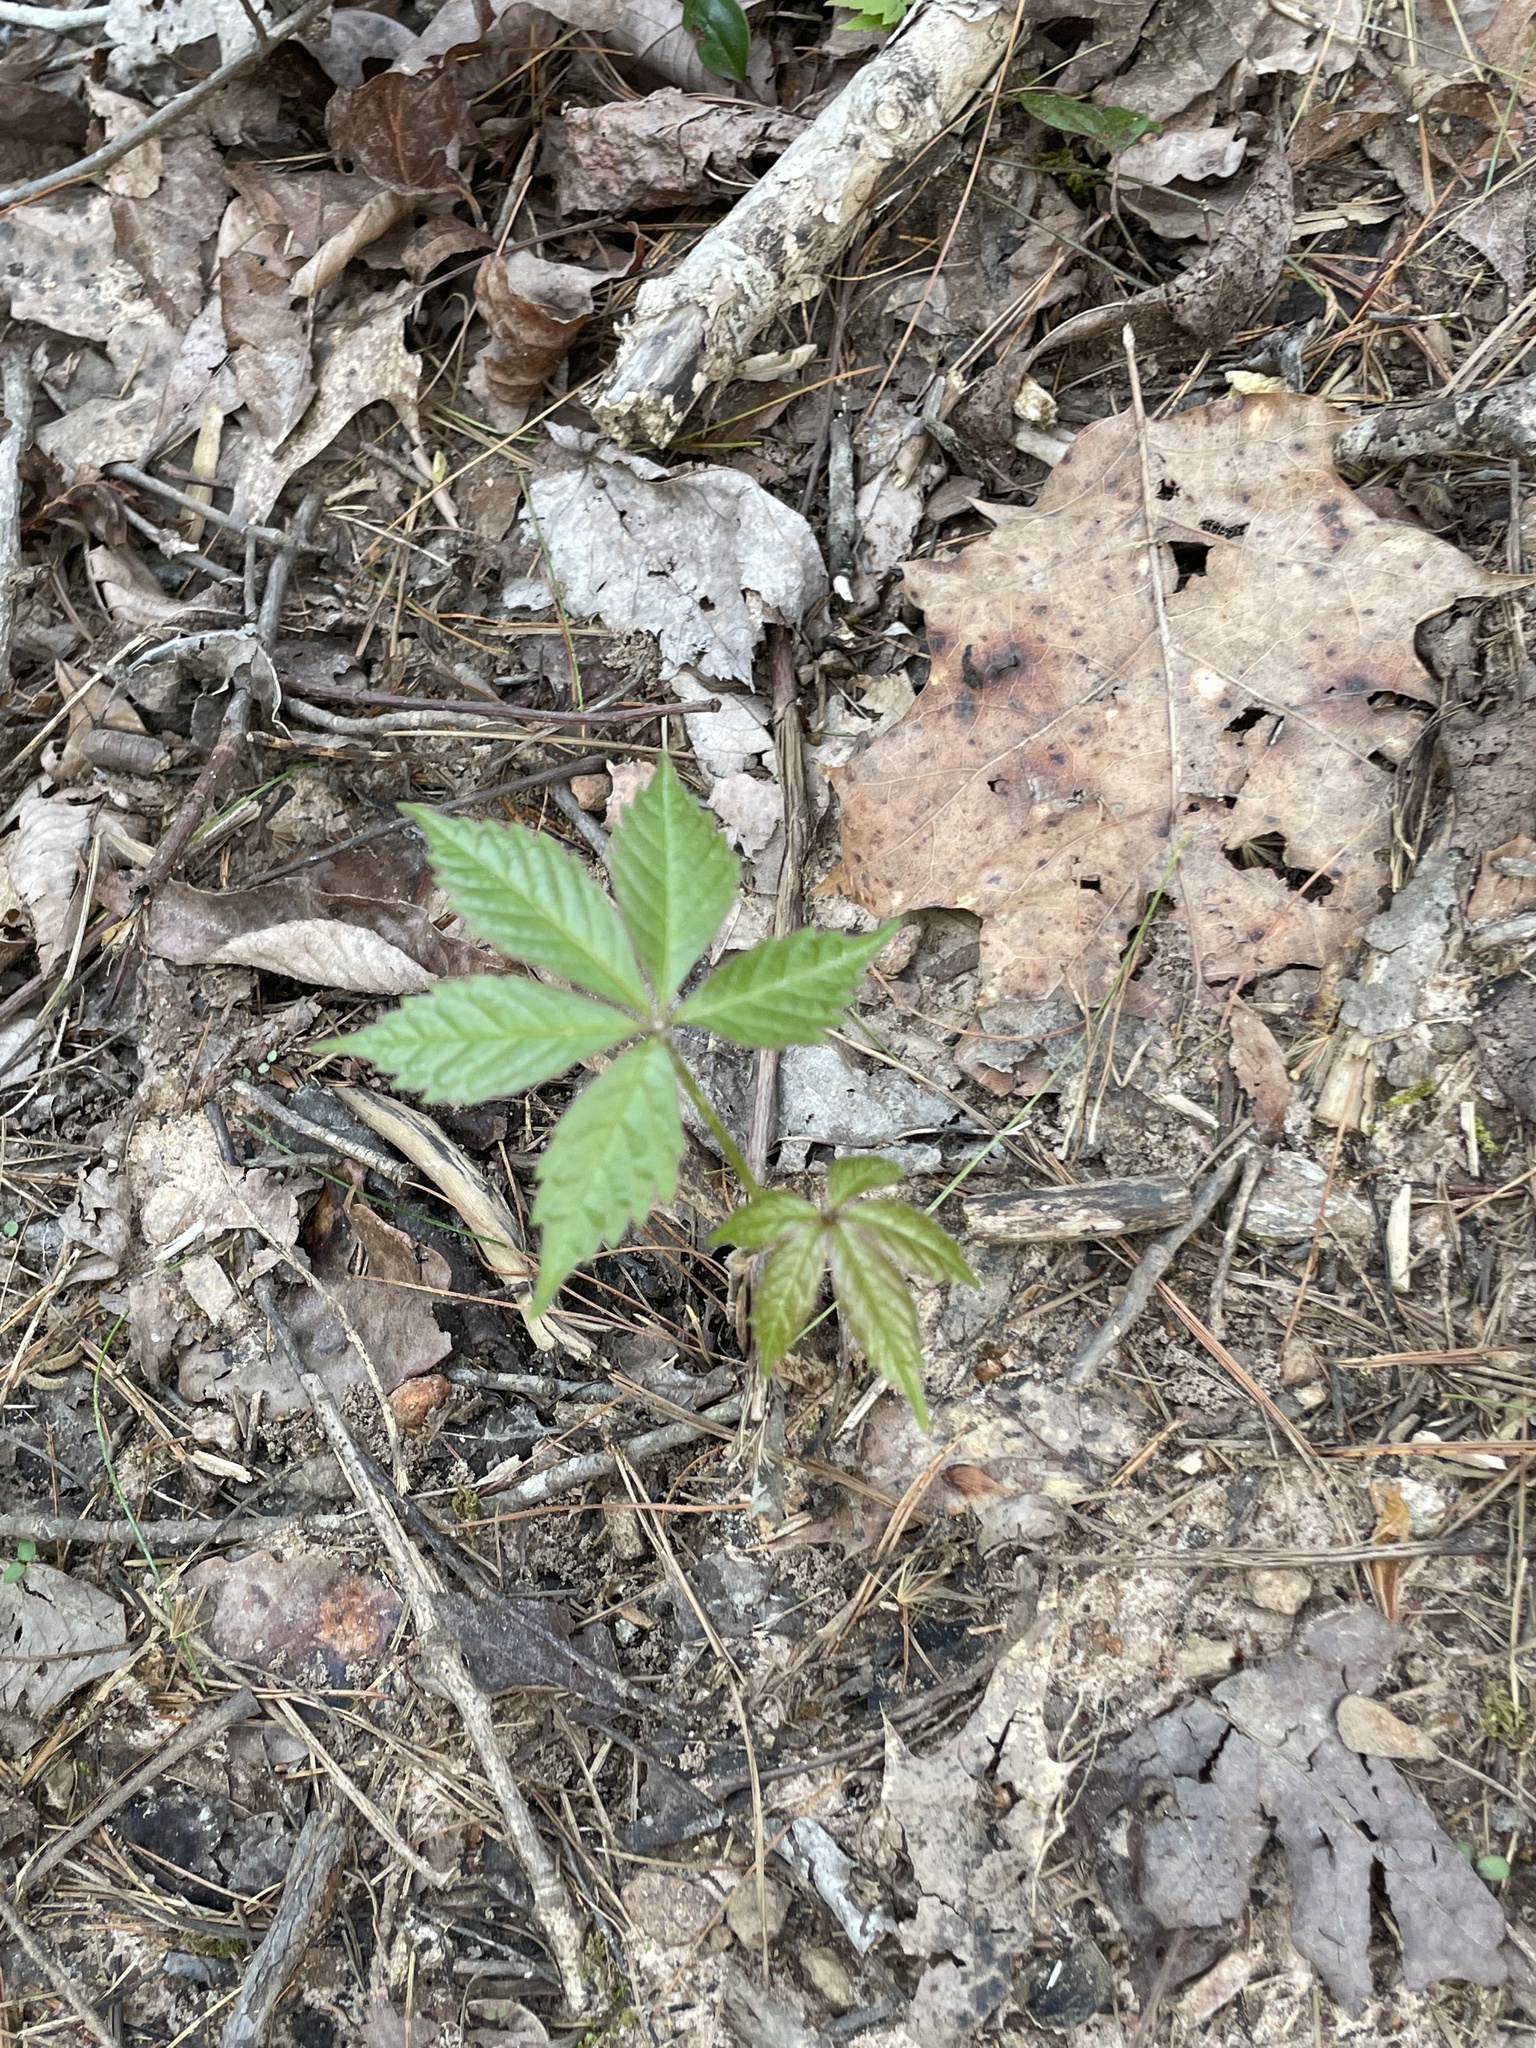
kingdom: Plantae
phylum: Tracheophyta
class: Magnoliopsida
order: Vitales
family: Vitaceae
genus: Parthenocissus
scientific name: Parthenocissus quinquefolia
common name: Virginia-creeper
